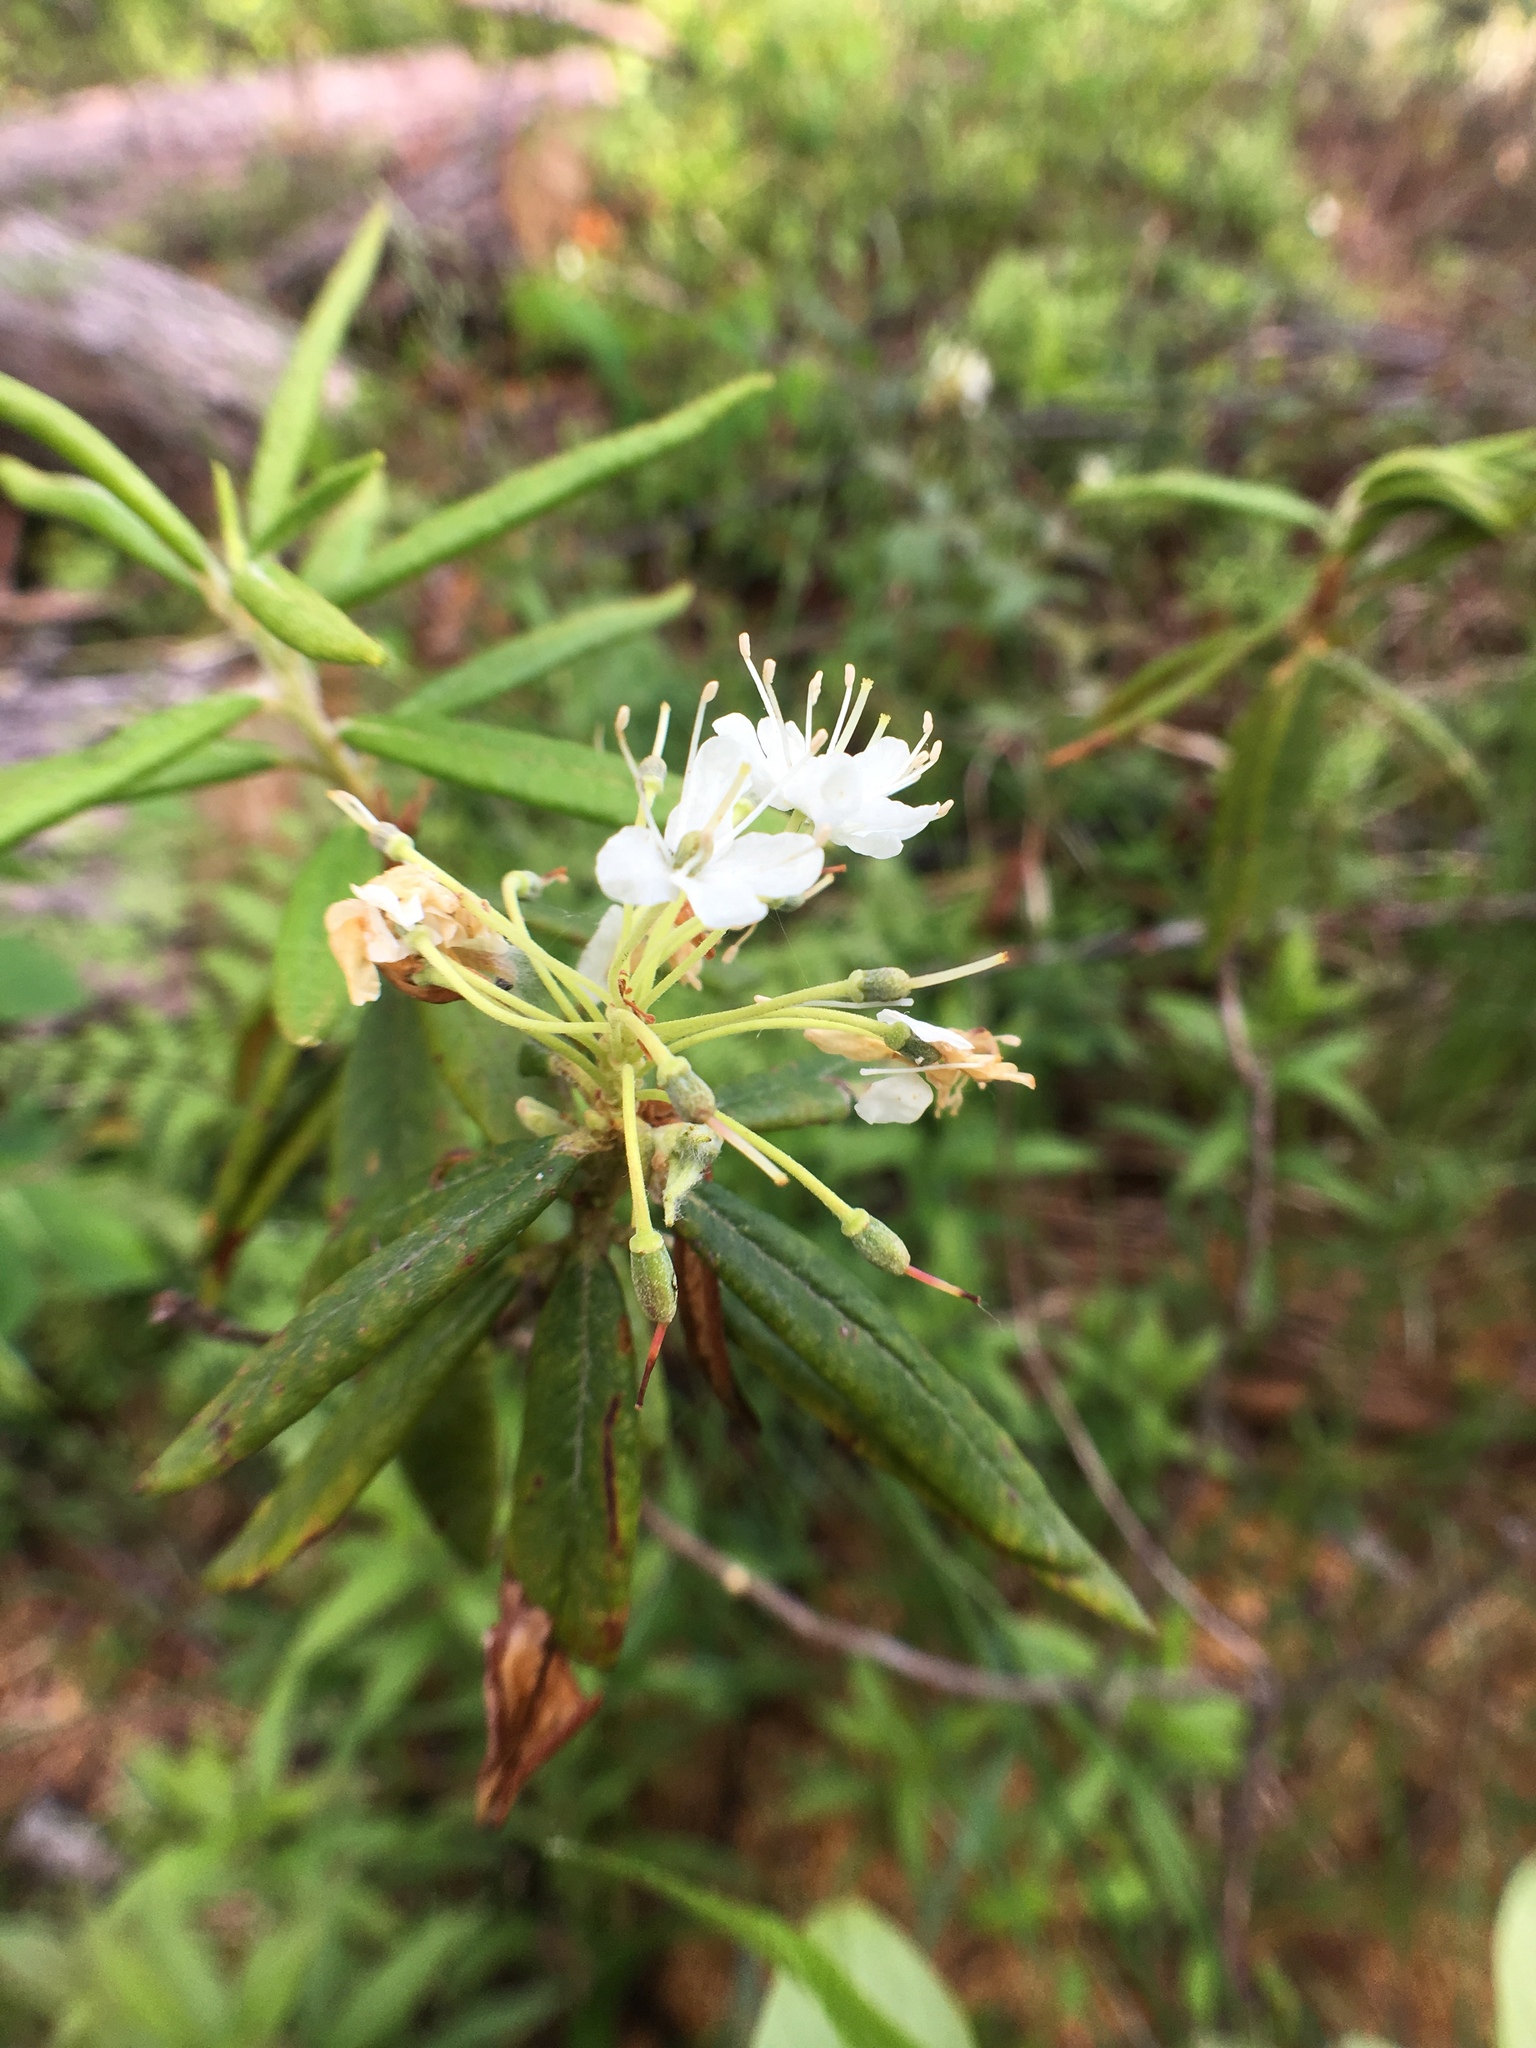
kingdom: Plantae
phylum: Tracheophyta
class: Magnoliopsida
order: Ericales
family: Ericaceae
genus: Rhododendron
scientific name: Rhododendron groenlandicum
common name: Bog labrador tea
